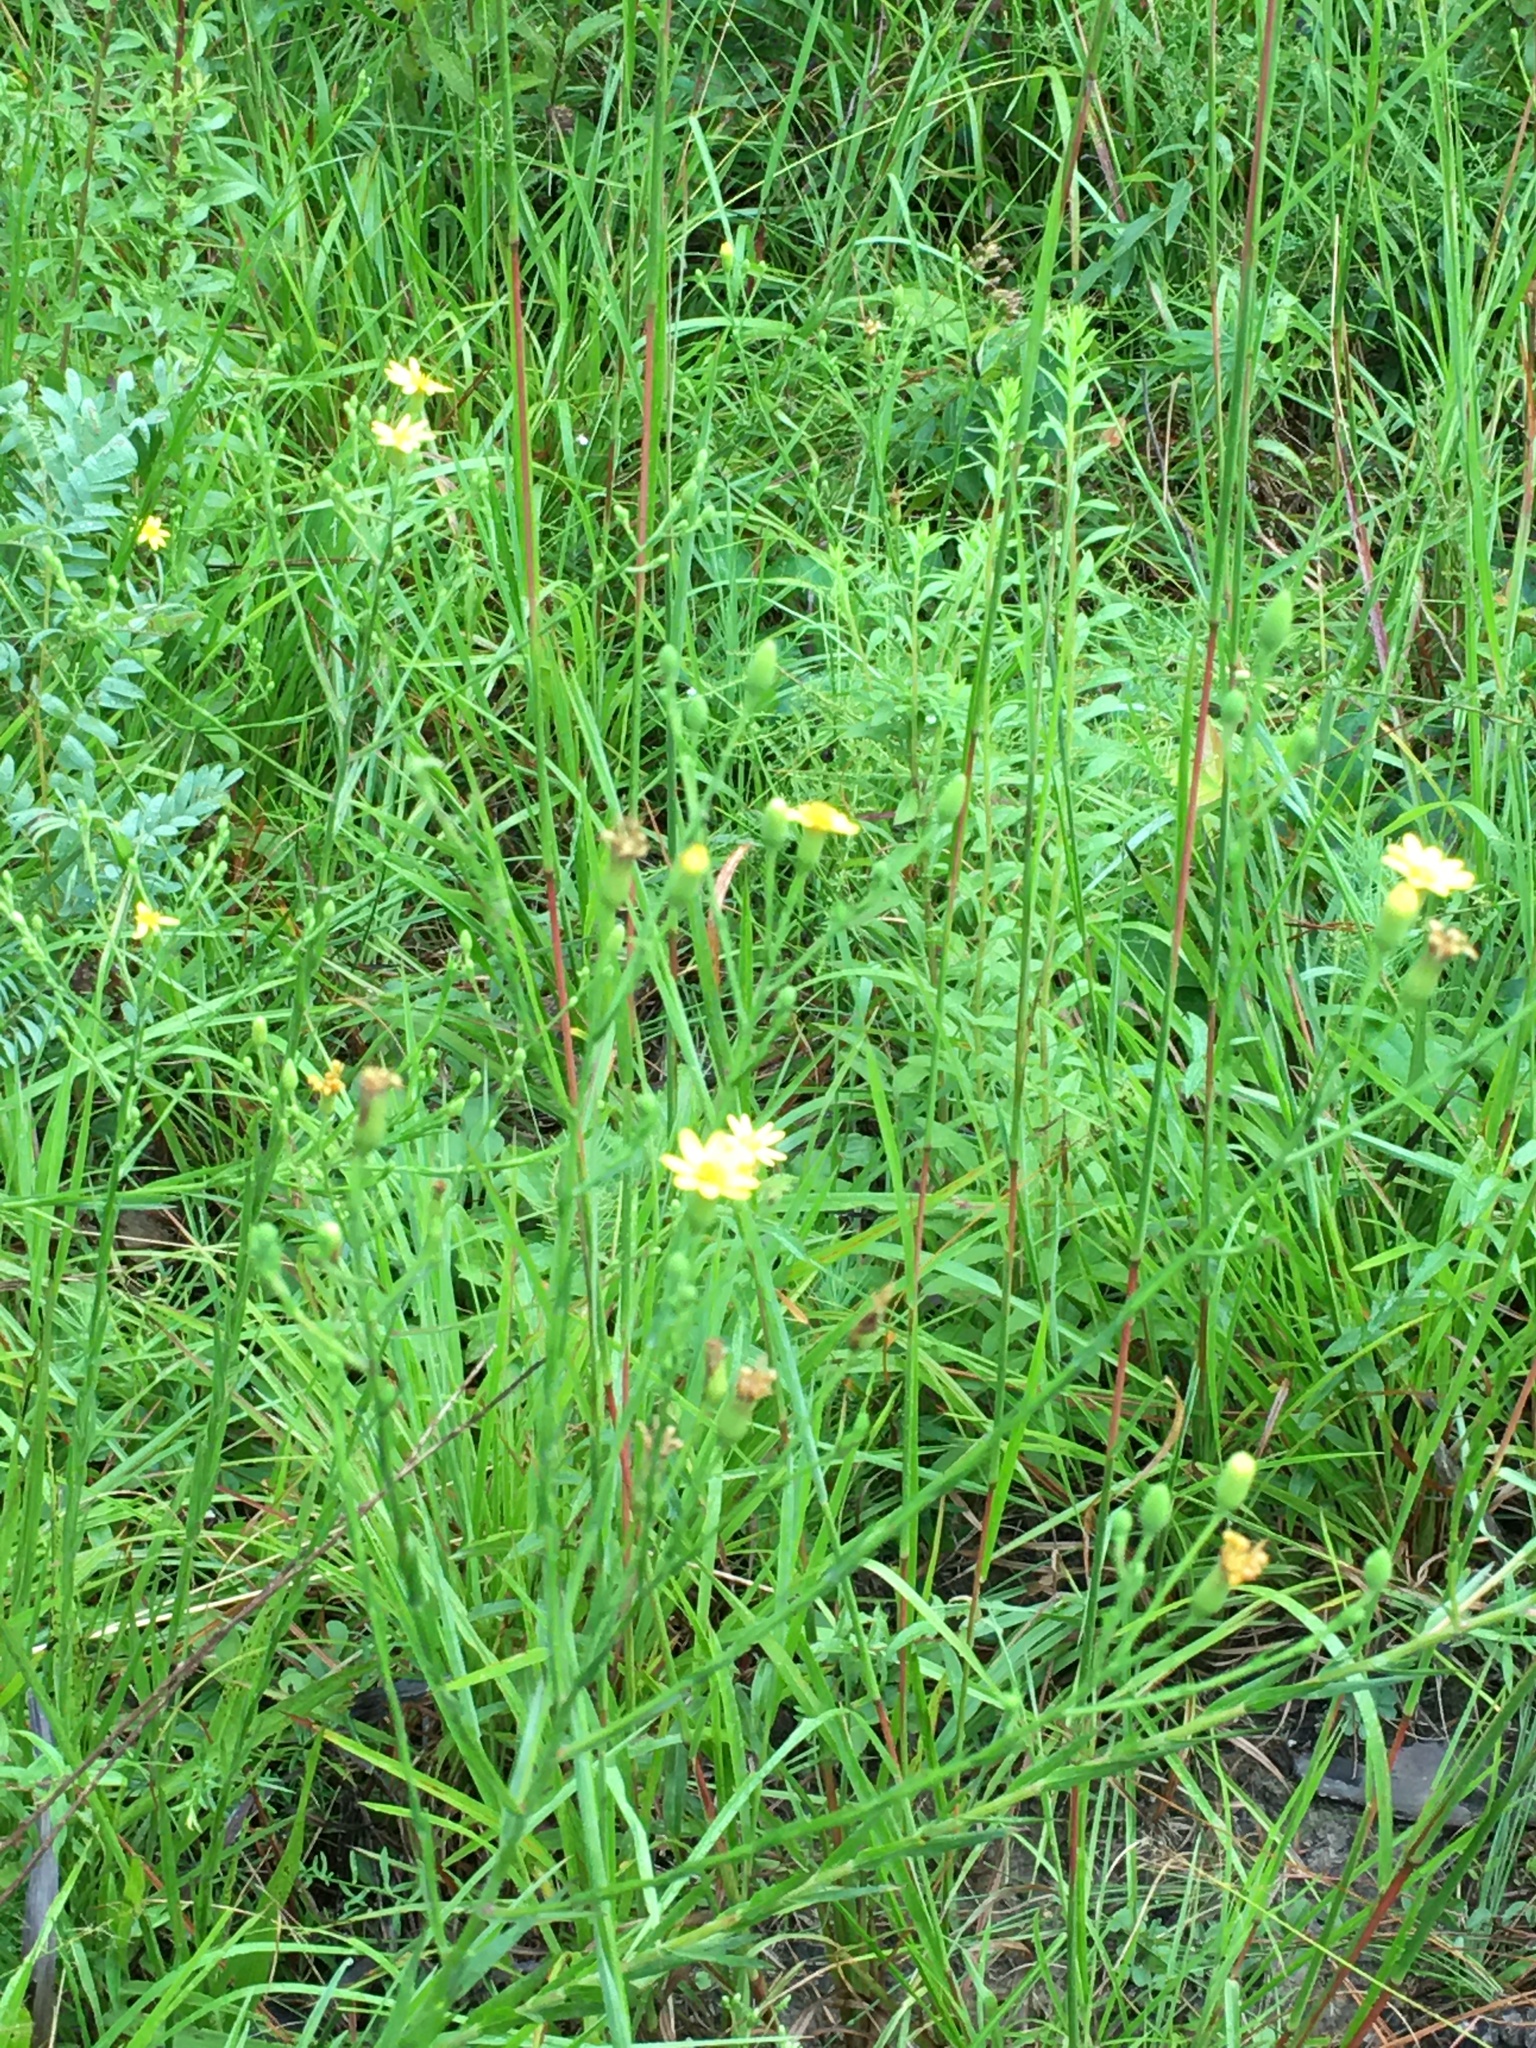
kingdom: Plantae
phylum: Tracheophyta
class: Magnoliopsida
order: Asterales
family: Asteraceae
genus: Pityopsis
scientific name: Pityopsis aspera
